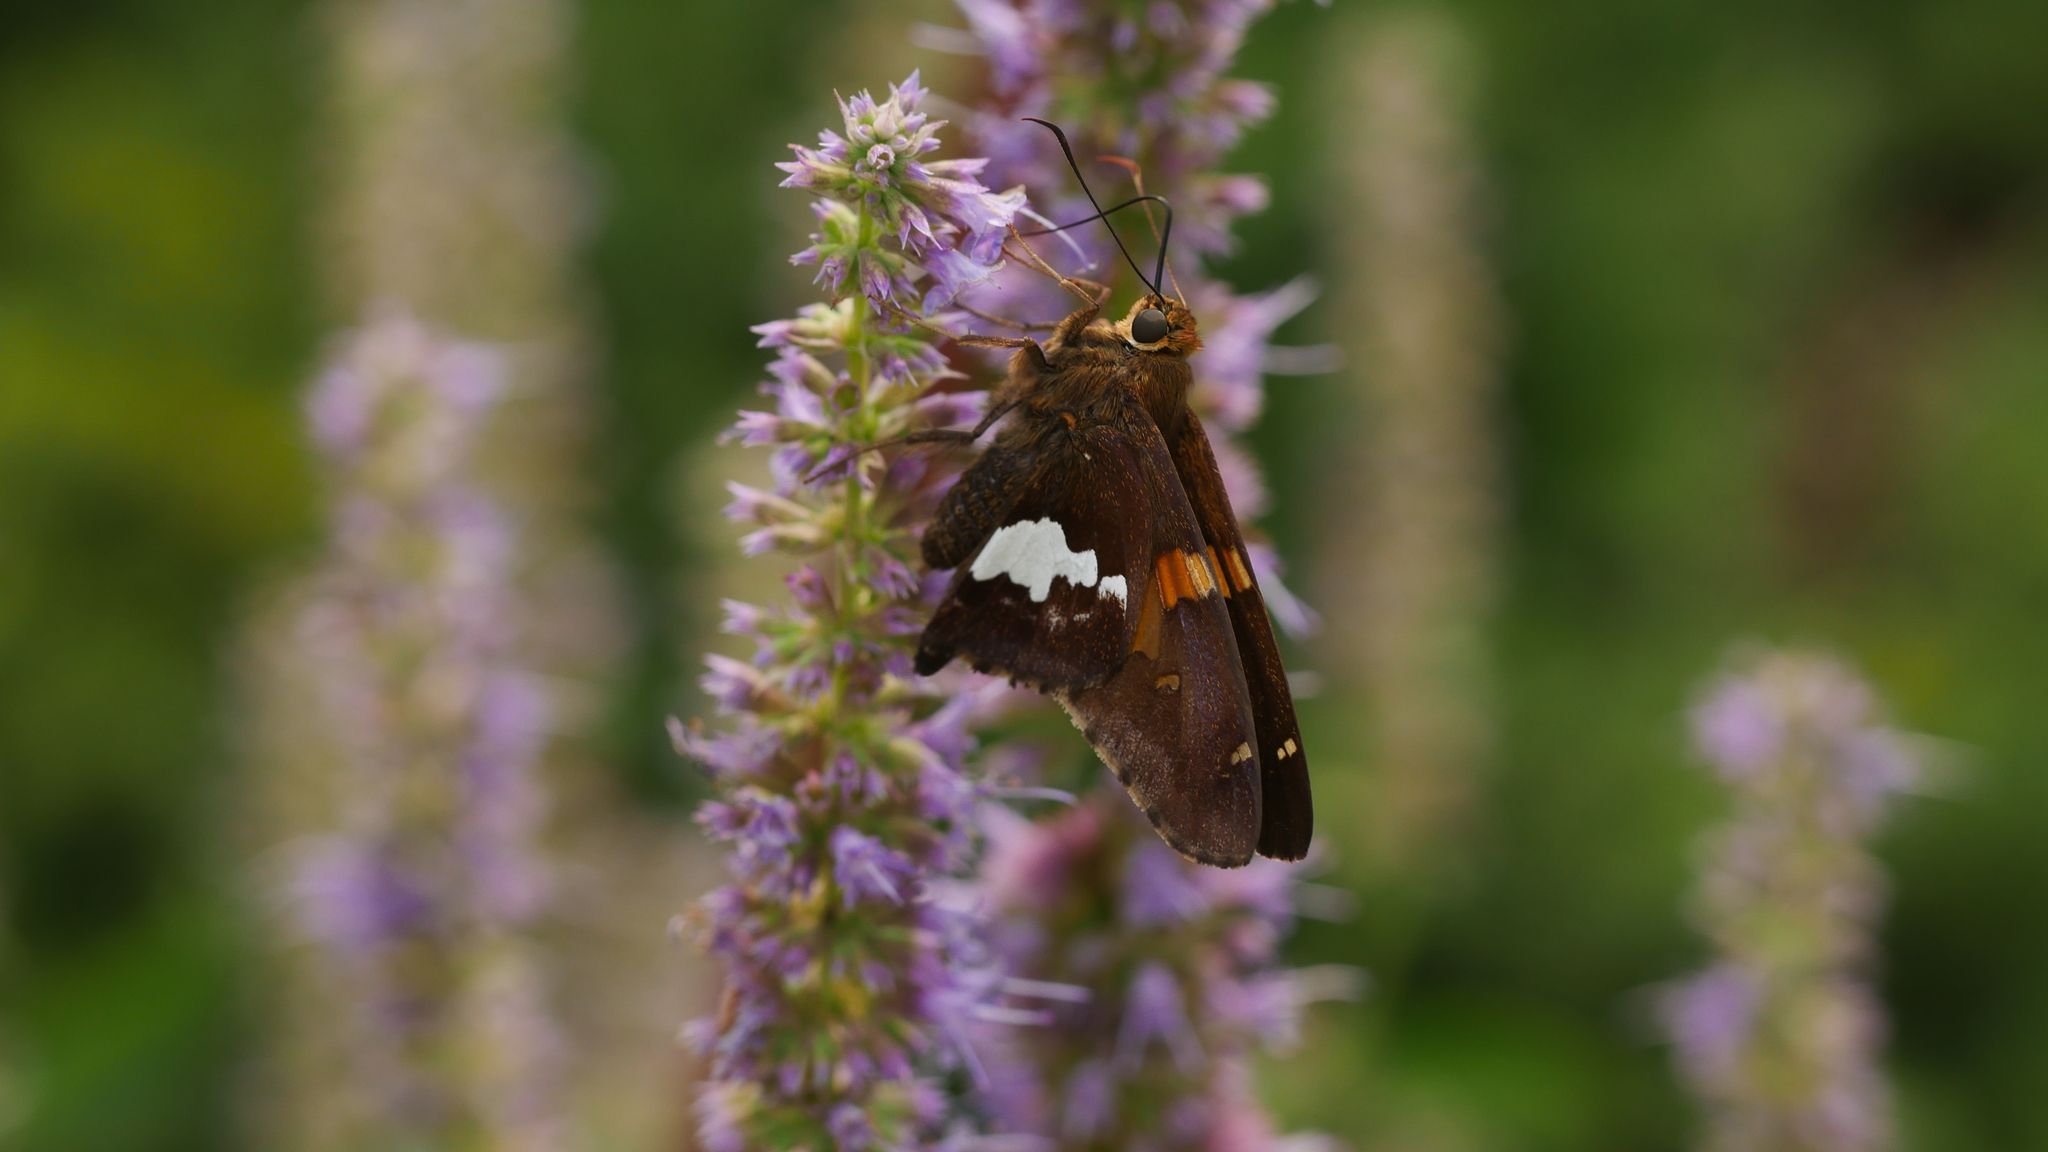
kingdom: Animalia
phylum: Arthropoda
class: Insecta
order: Lepidoptera
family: Hesperiidae
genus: Epargyreus
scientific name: Epargyreus clarus
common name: Silver-spotted skipper
